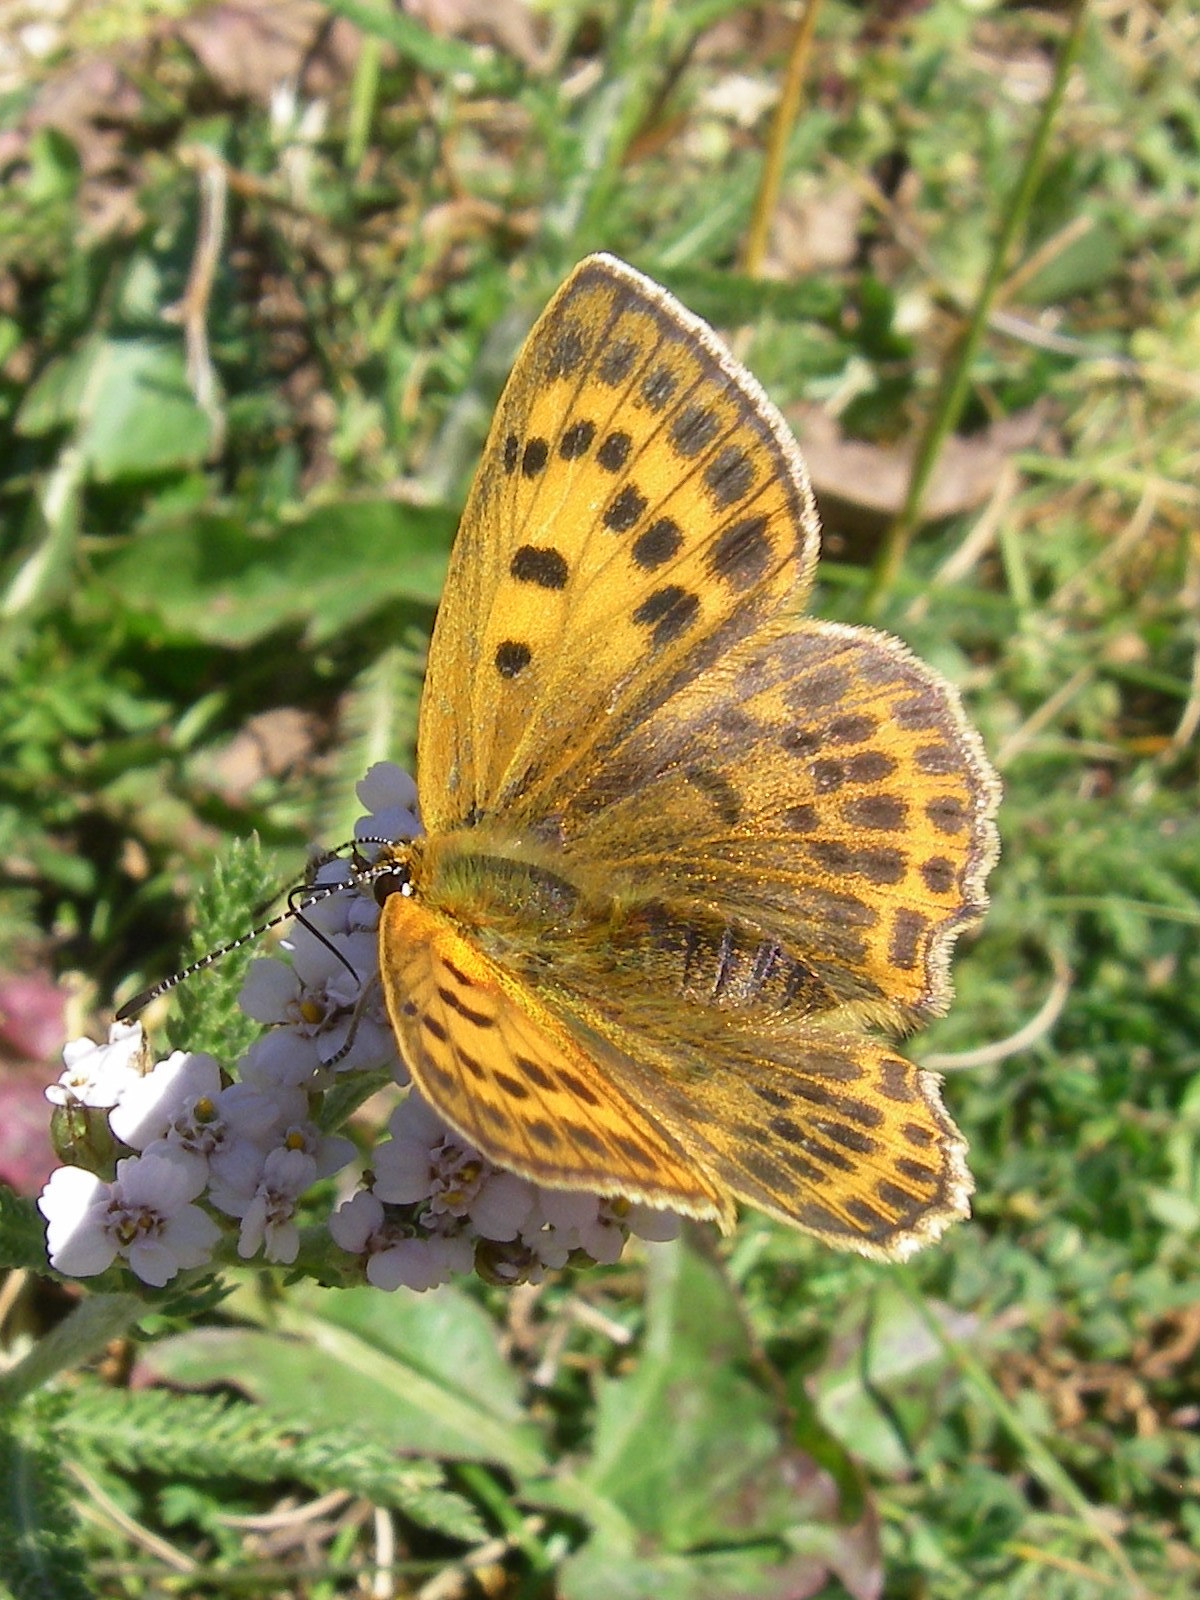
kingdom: Animalia
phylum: Arthropoda
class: Insecta
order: Lepidoptera
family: Lycaenidae
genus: Lycaena
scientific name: Lycaena virgaureae
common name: Scarce copper
